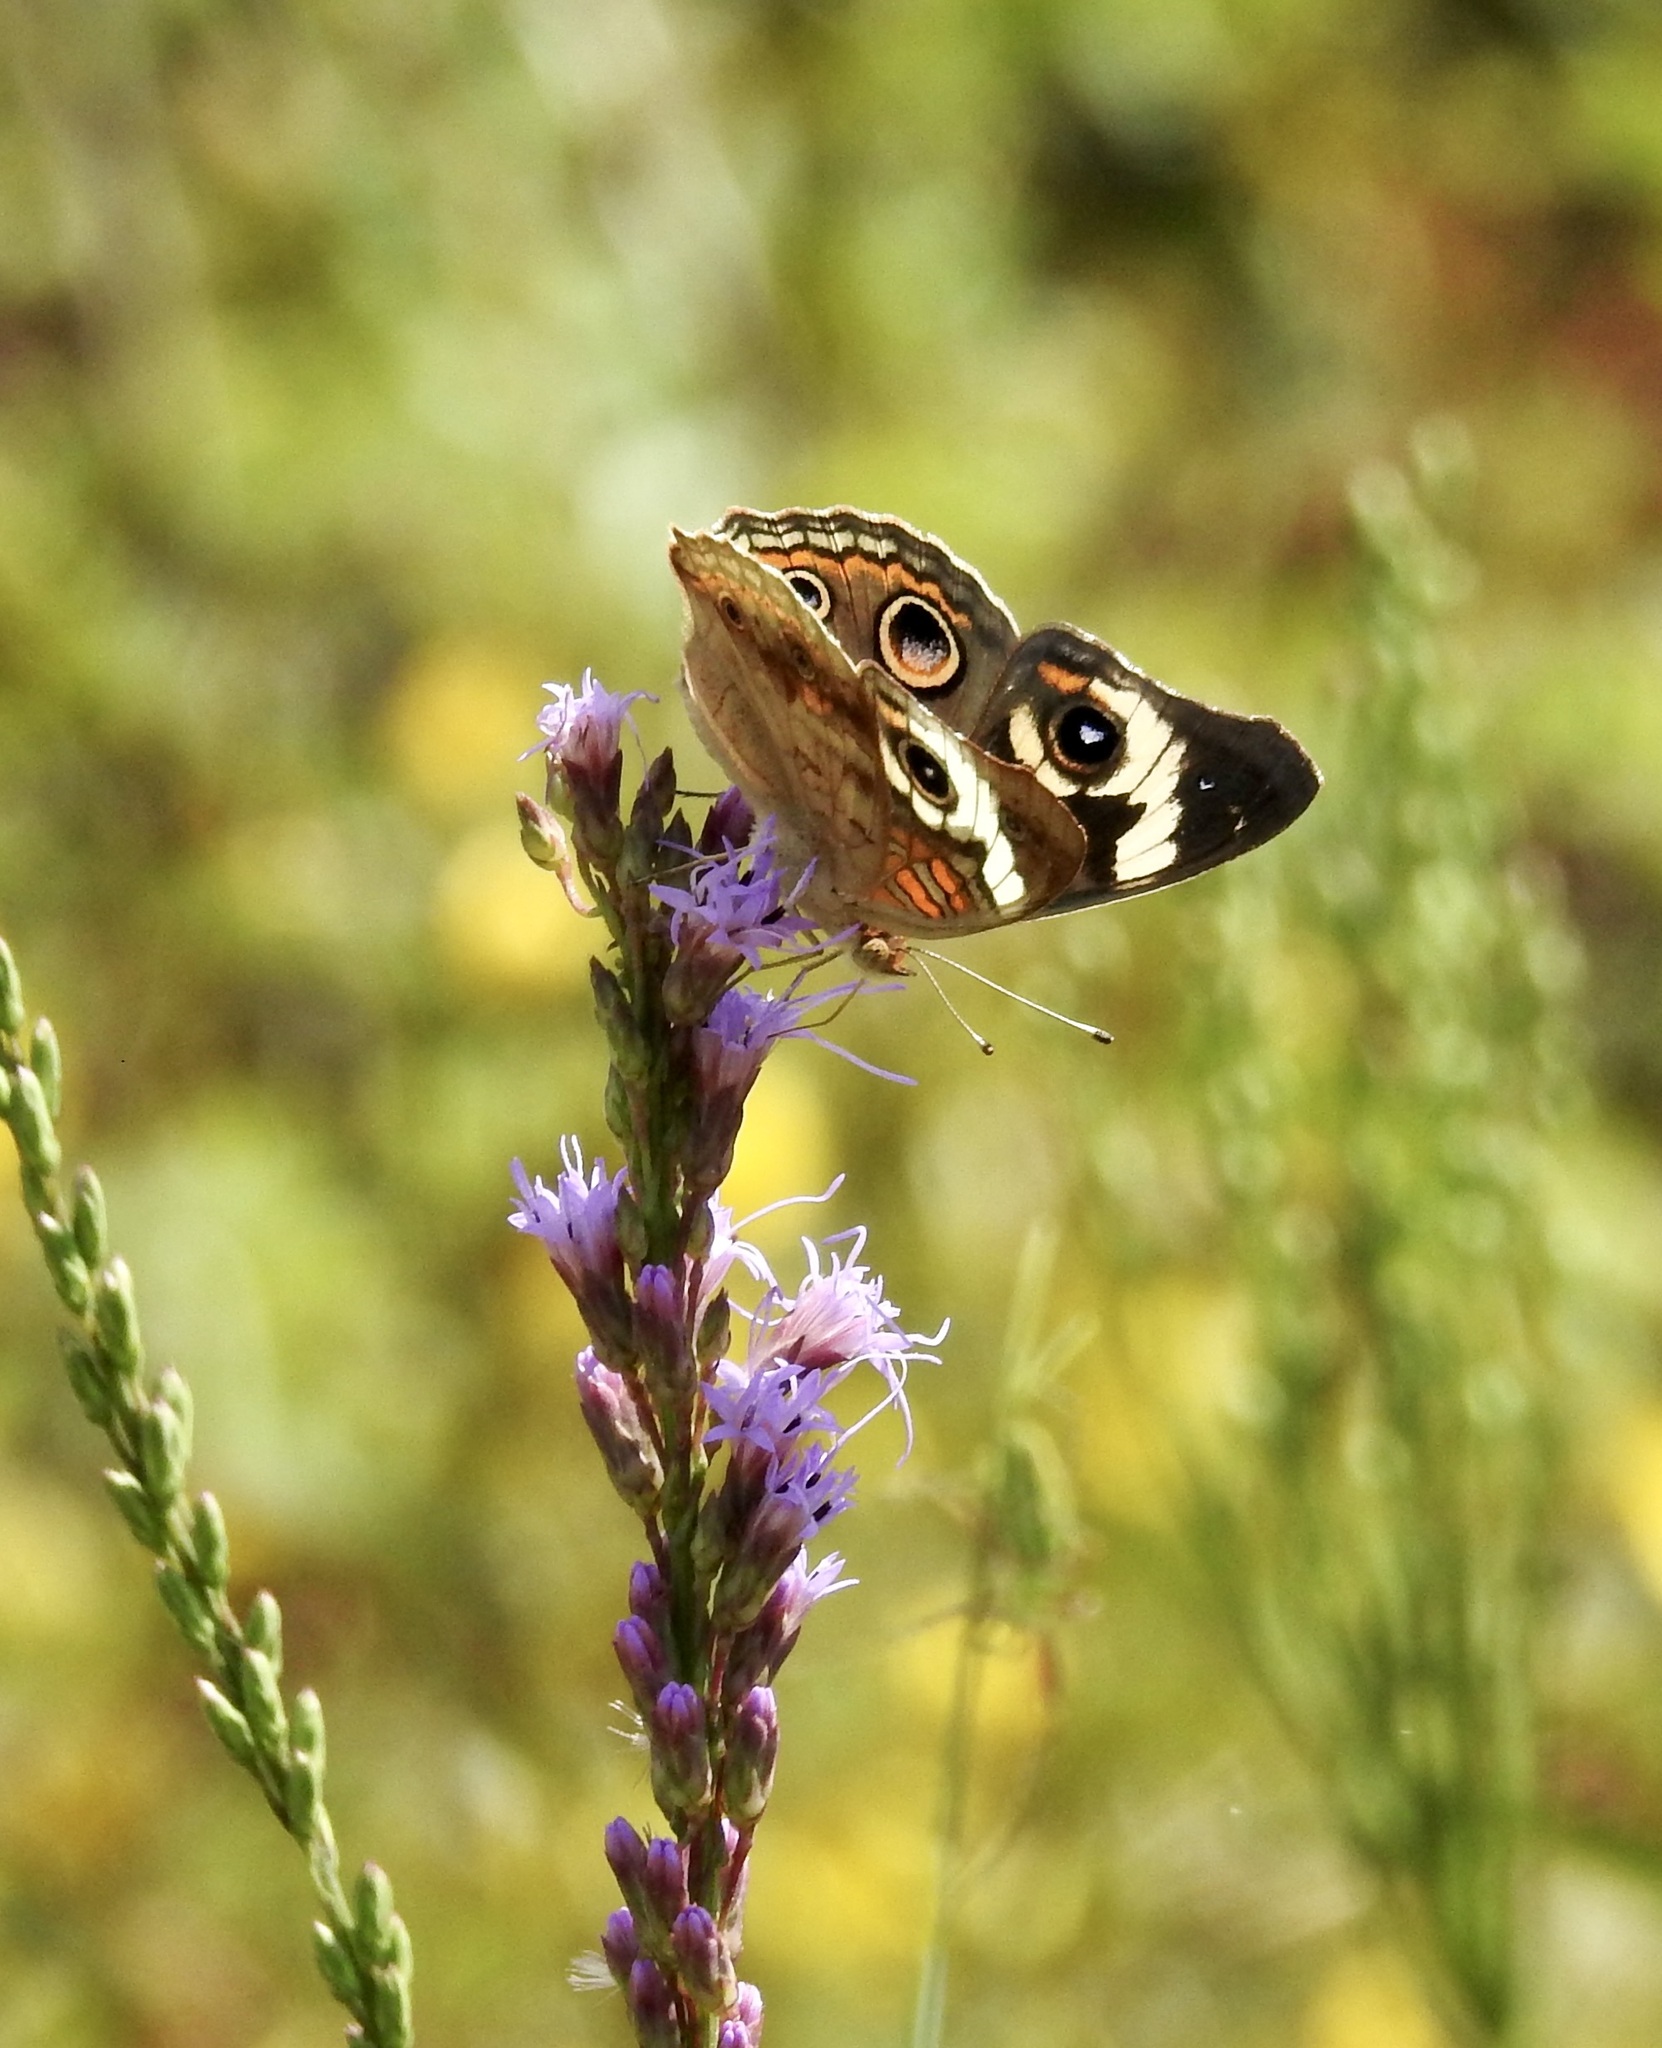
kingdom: Animalia
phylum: Arthropoda
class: Insecta
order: Lepidoptera
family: Nymphalidae
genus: Junonia
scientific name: Junonia coenia
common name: Common buckeye
